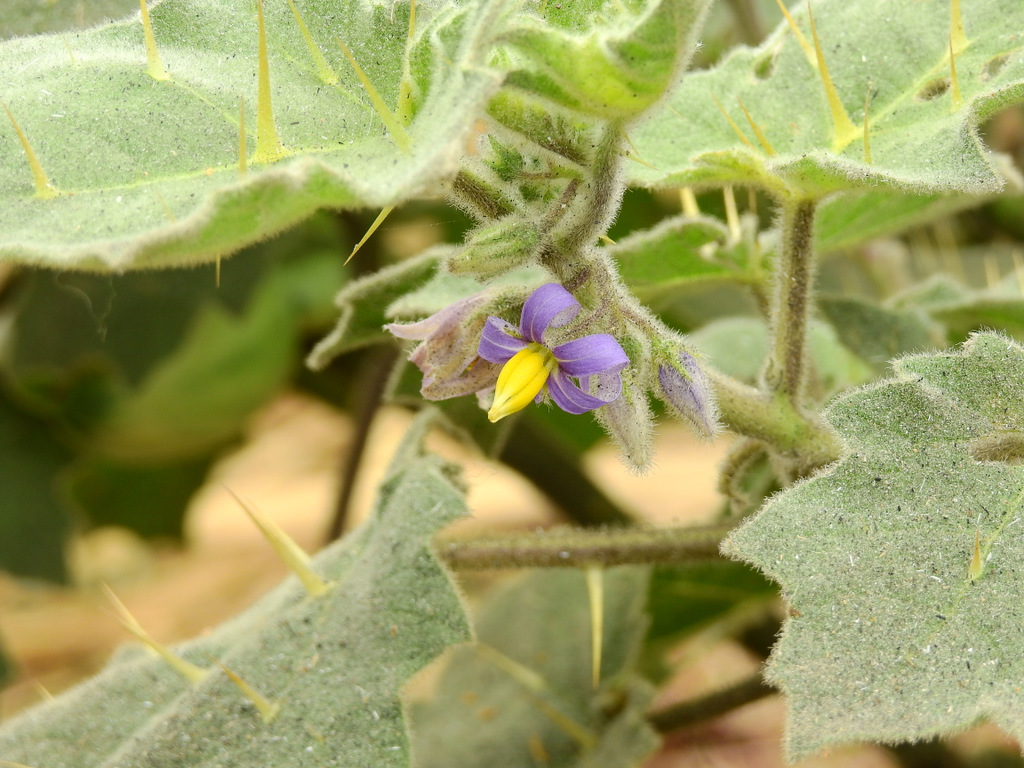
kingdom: Plantae
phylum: Tracheophyta
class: Magnoliopsida
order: Solanales
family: Solanaceae
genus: Solanum
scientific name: Solanum mammosum
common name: Nipple fruit
